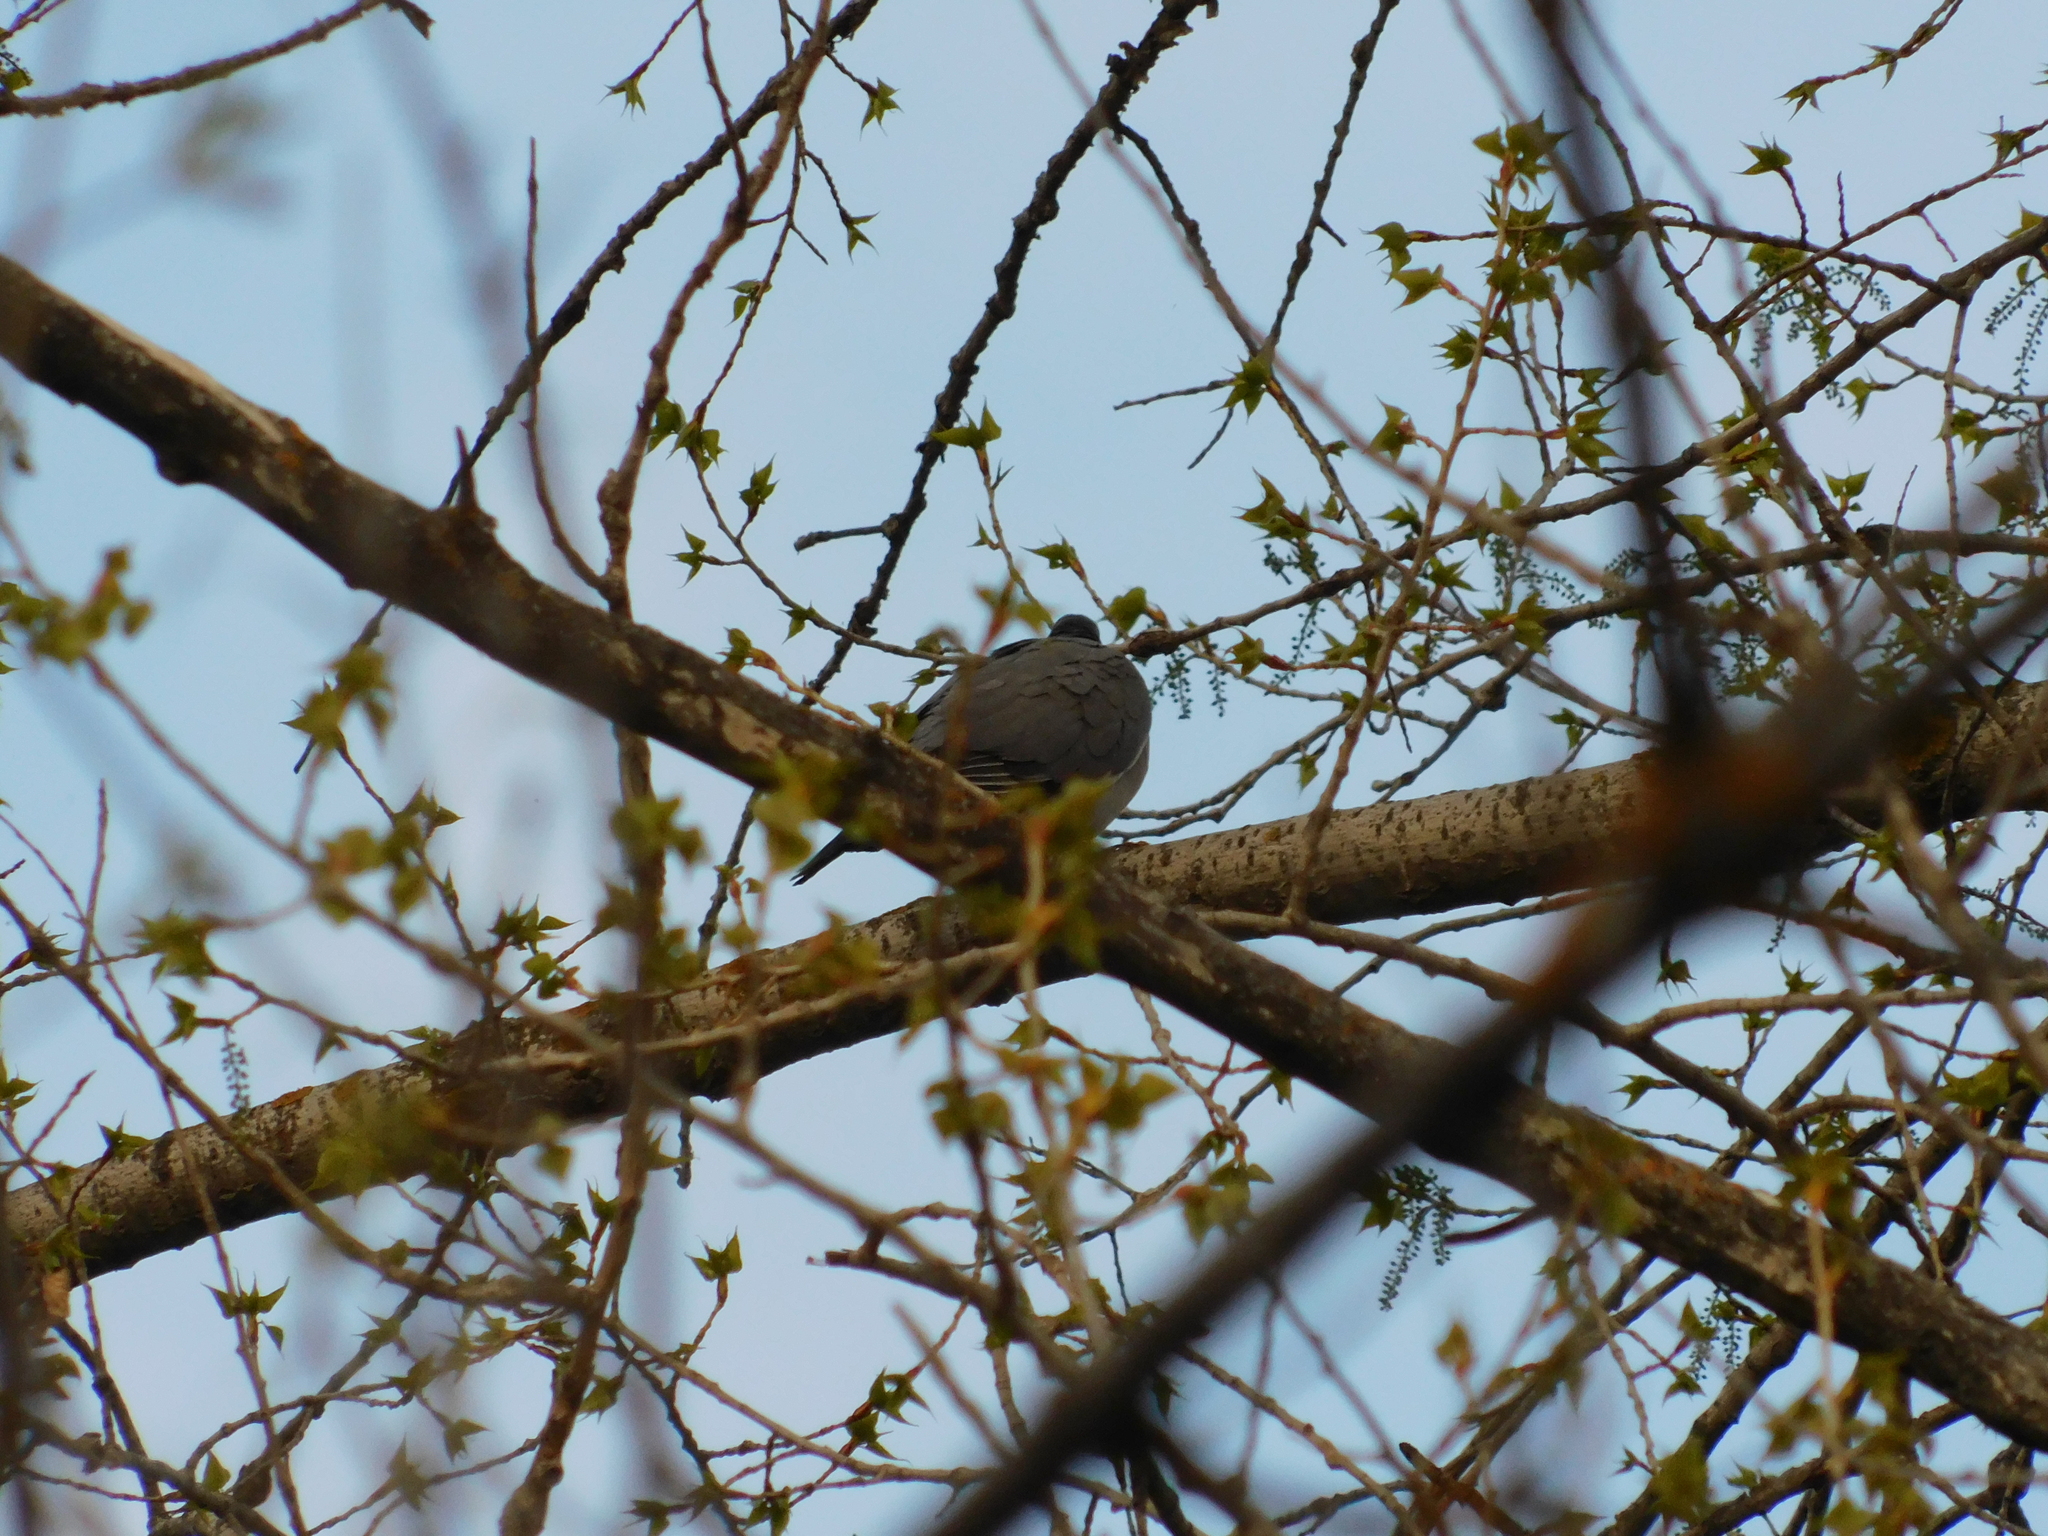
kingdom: Animalia
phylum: Chordata
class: Aves
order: Columbiformes
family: Columbidae
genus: Columba
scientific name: Columba palumbus
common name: Common wood pigeon
